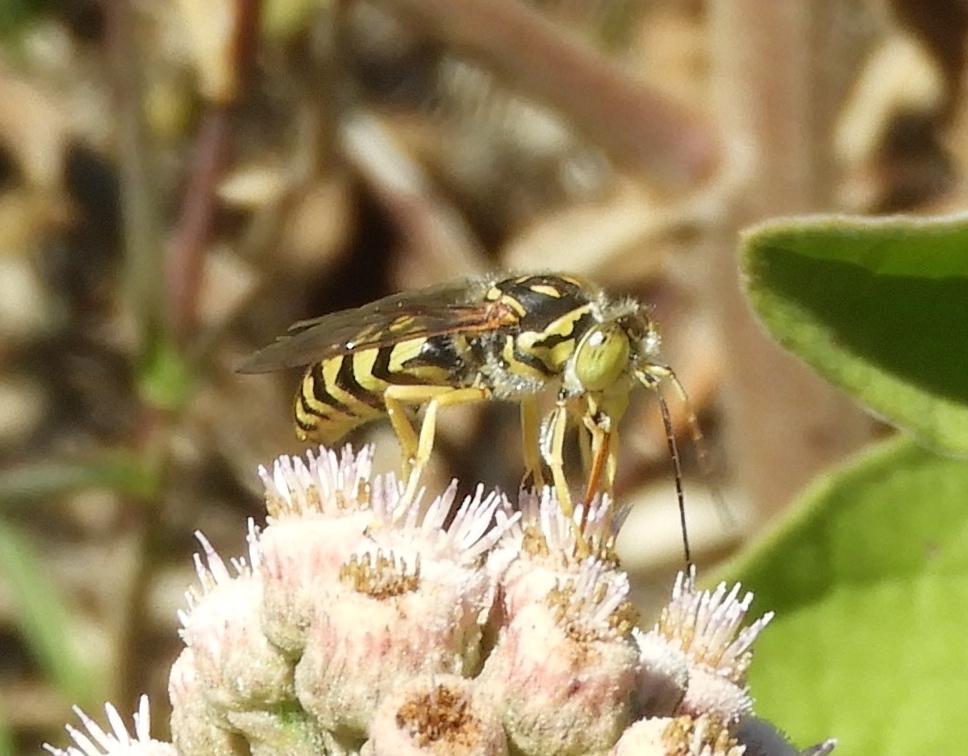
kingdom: Animalia
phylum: Arthropoda
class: Insecta
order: Hymenoptera
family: Crabronidae
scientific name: Crabronidae
